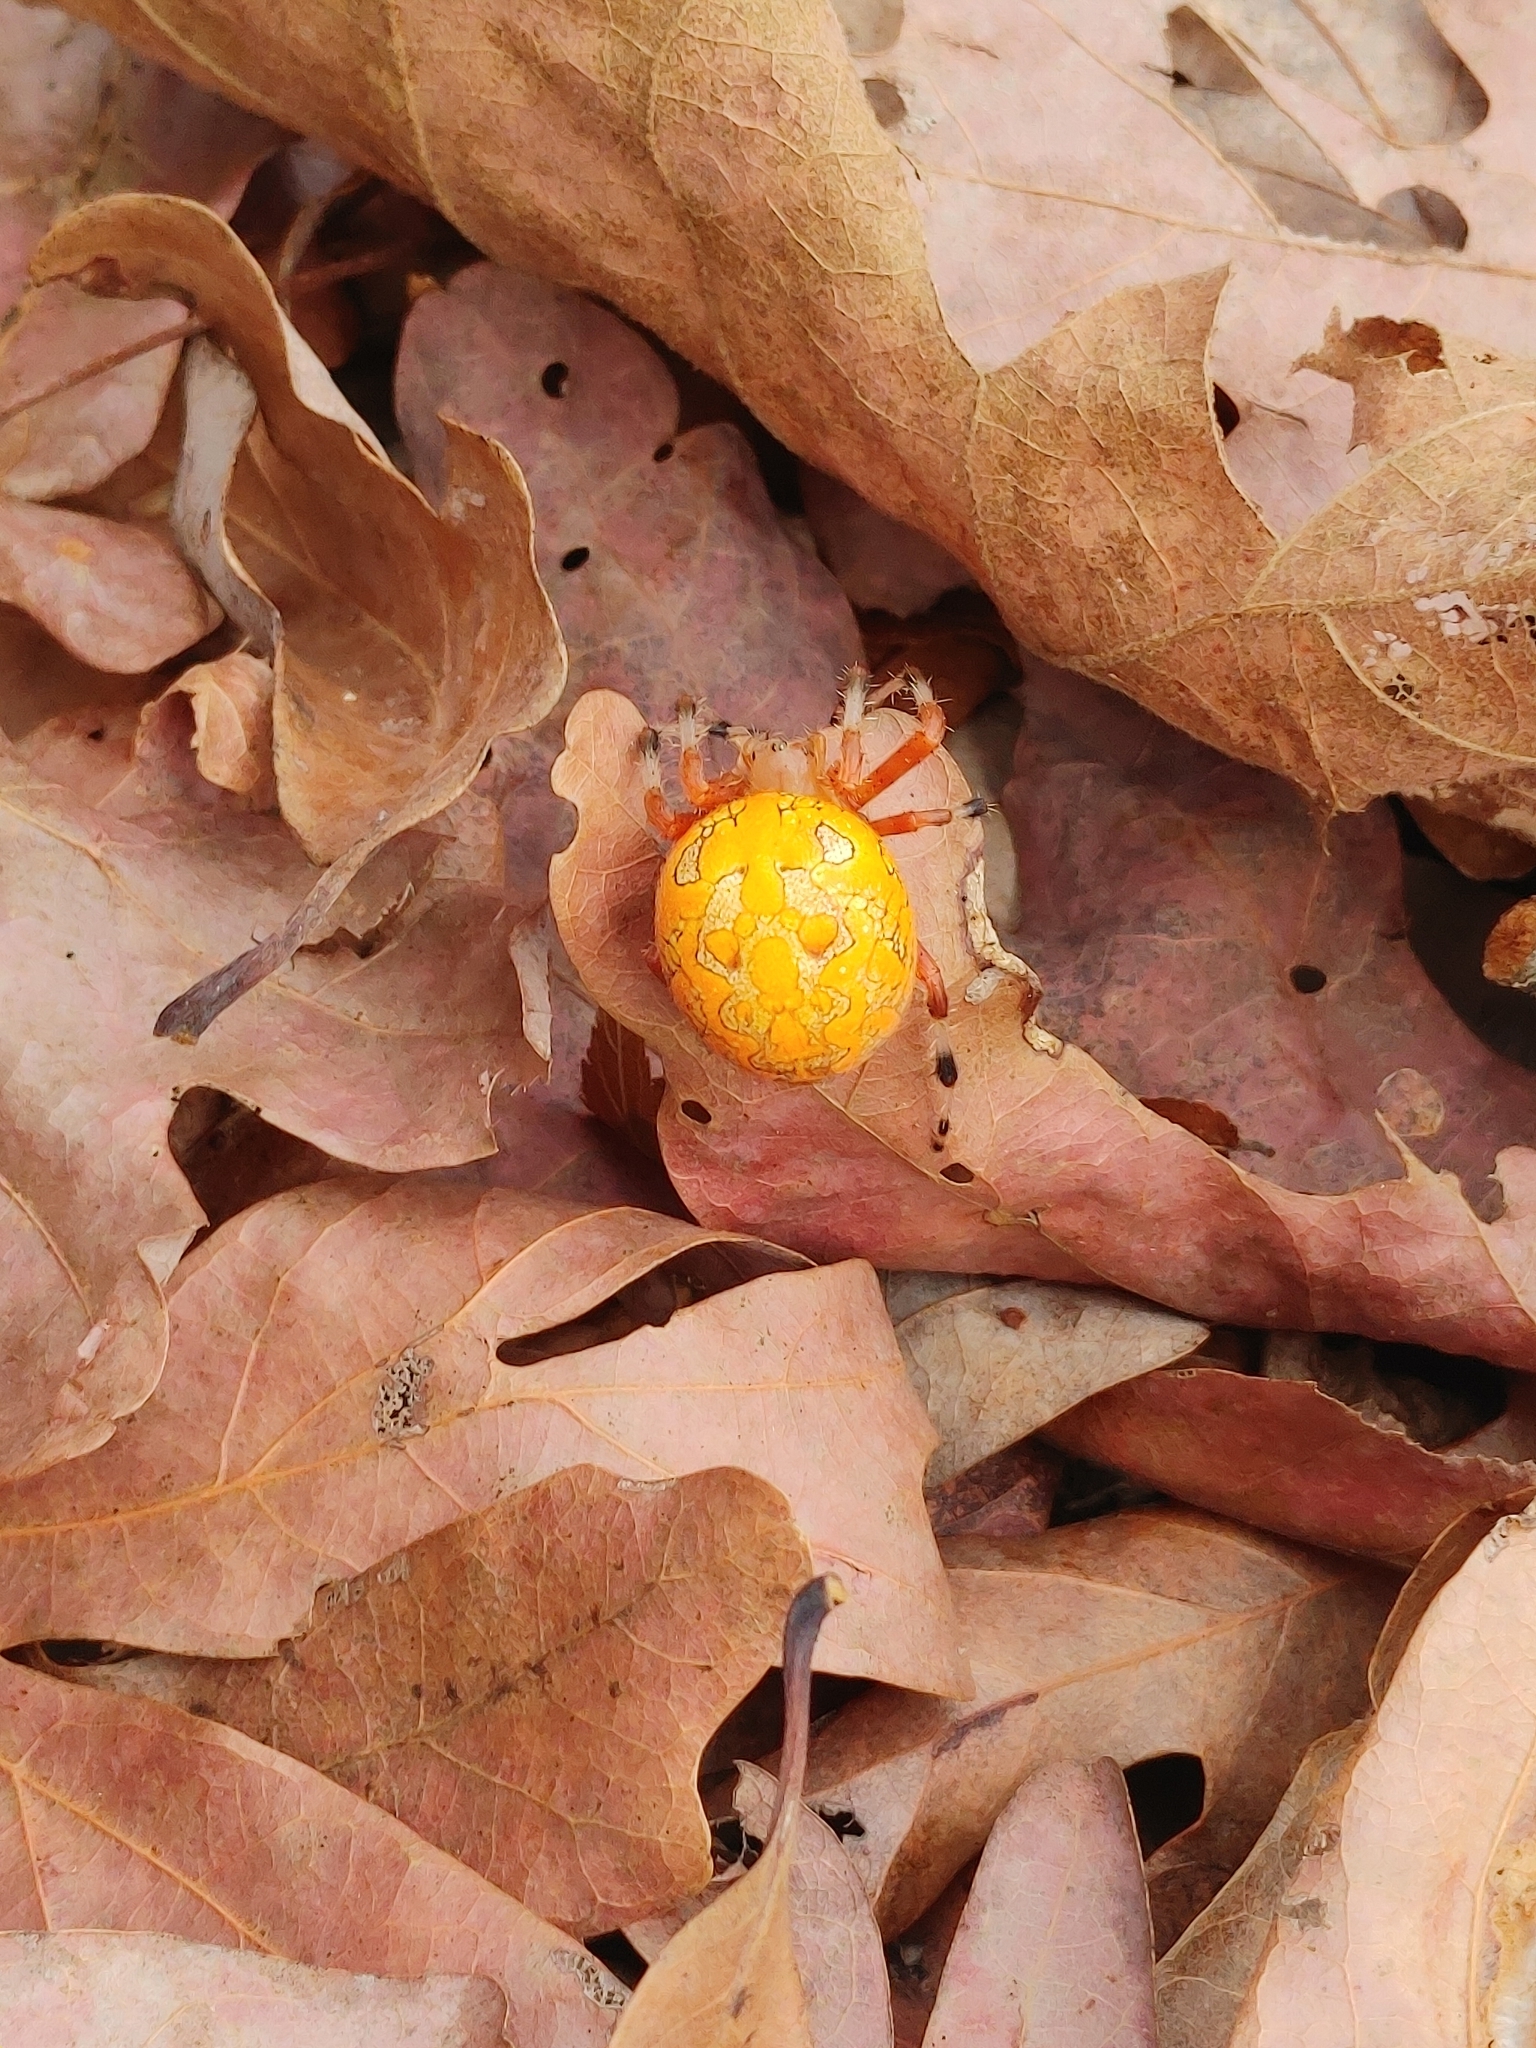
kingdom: Animalia
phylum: Arthropoda
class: Arachnida
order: Araneae
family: Araneidae
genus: Araneus
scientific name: Araneus marmoreus
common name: Marbled orbweaver
